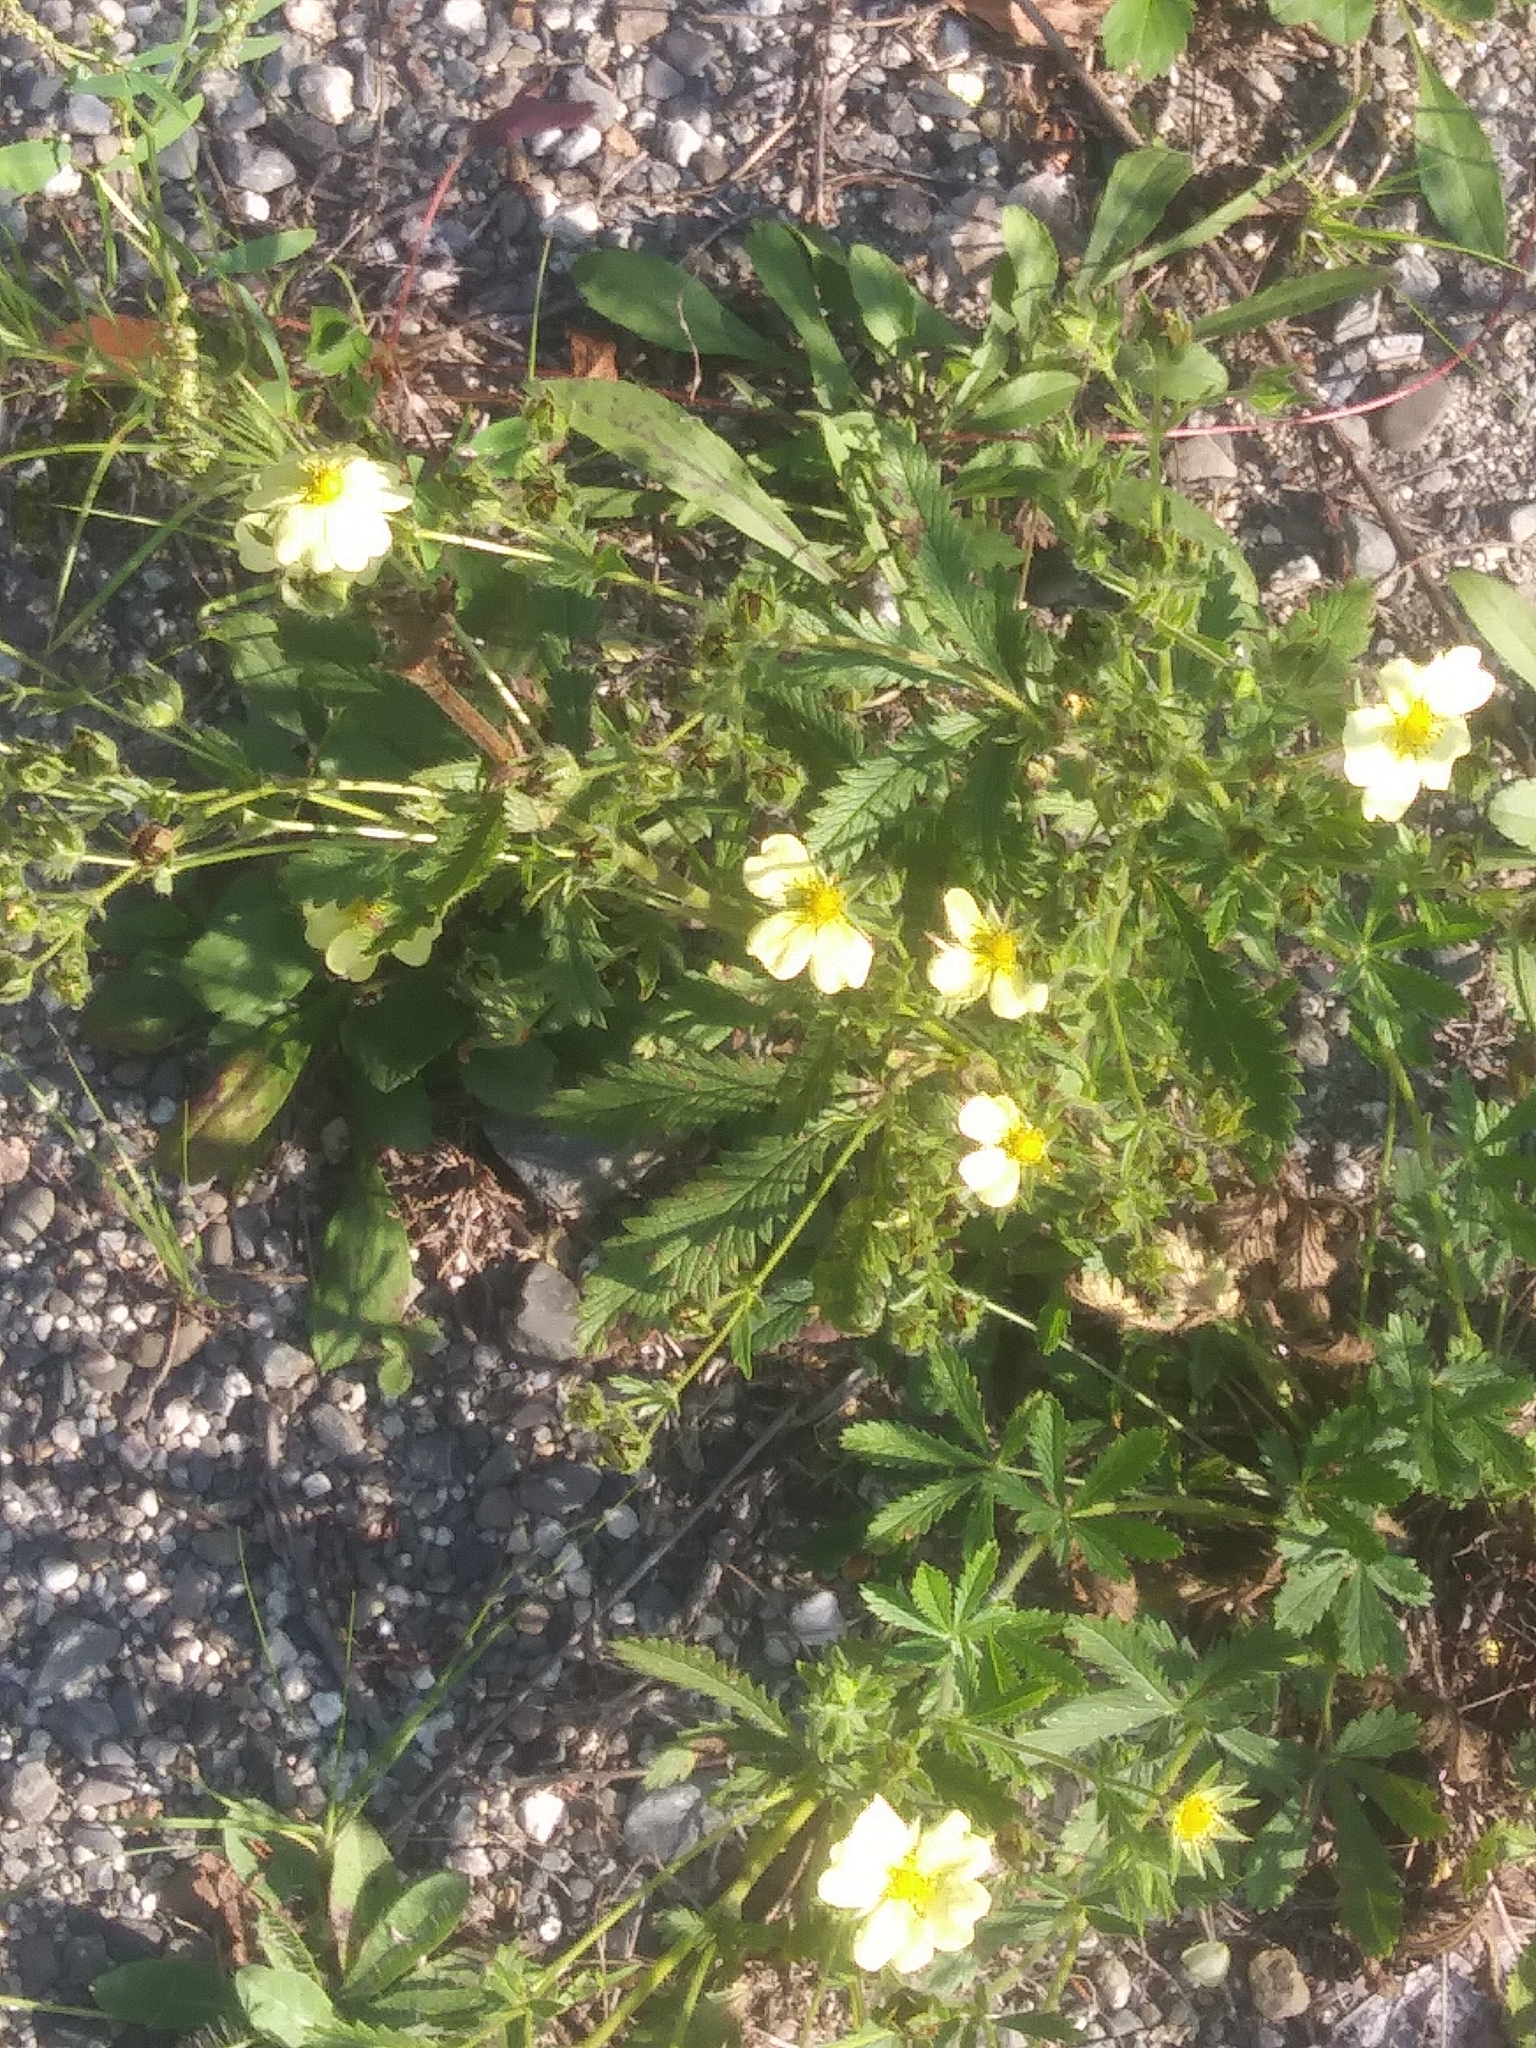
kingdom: Plantae
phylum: Tracheophyta
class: Magnoliopsida
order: Rosales
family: Rosaceae
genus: Potentilla
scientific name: Potentilla recta
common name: Sulphur cinquefoil
